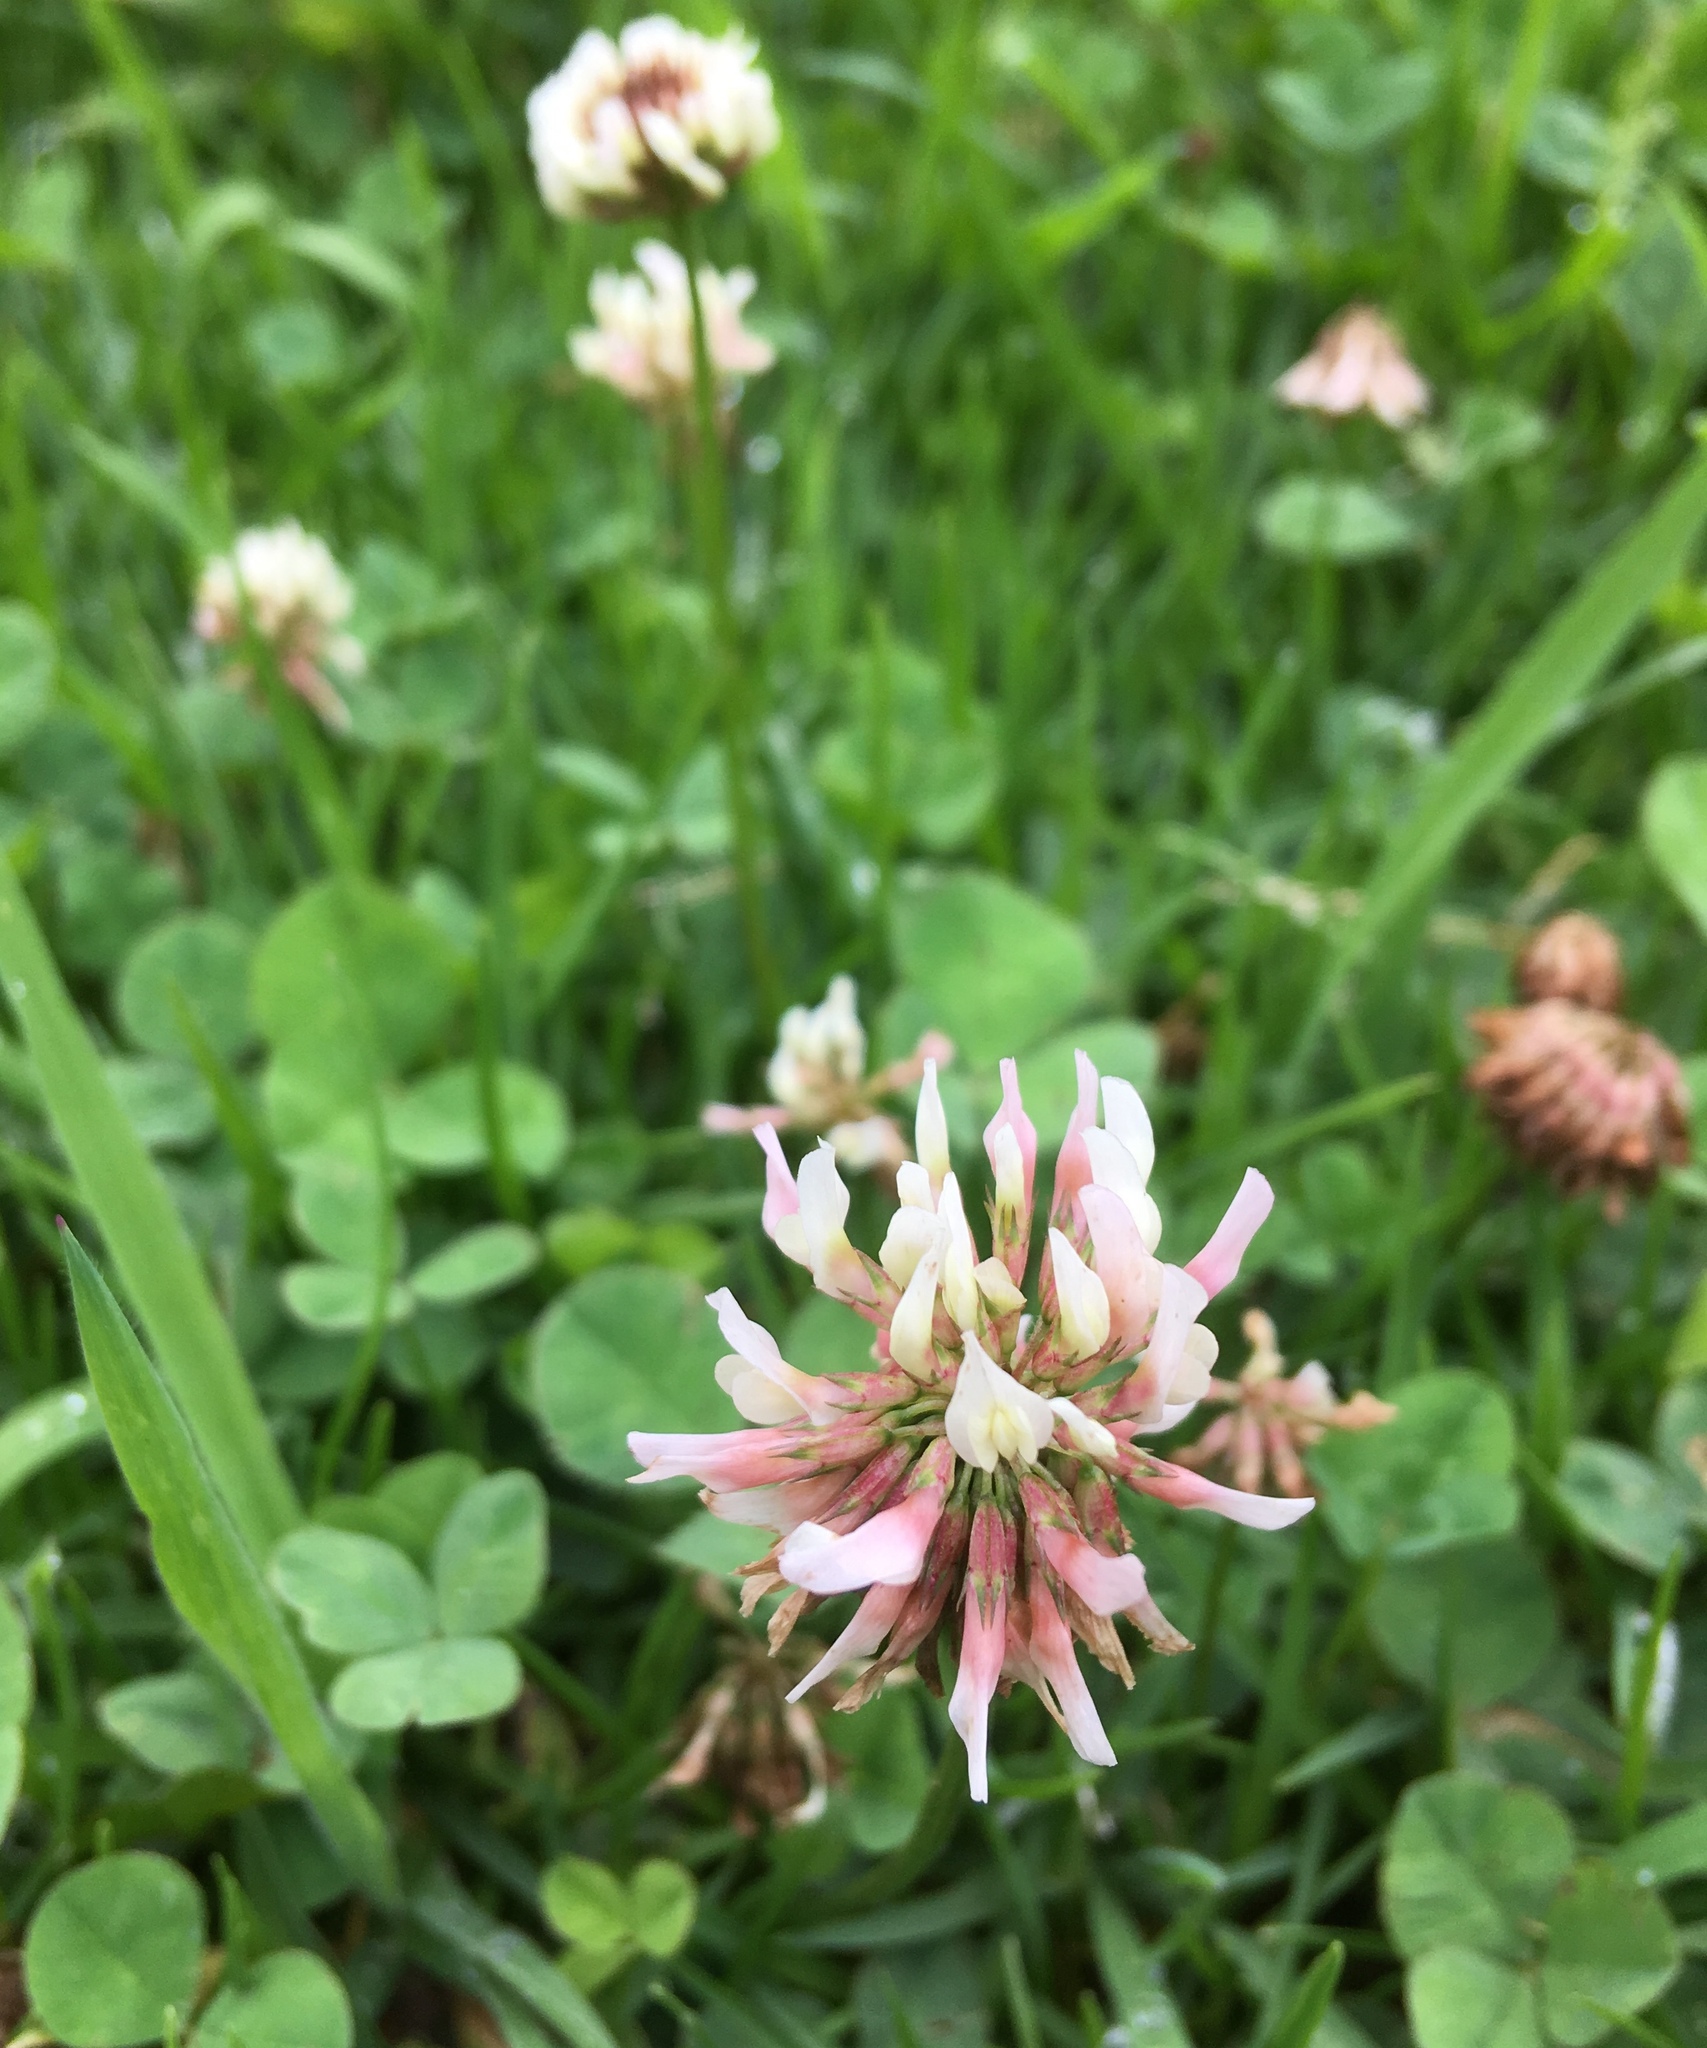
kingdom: Plantae
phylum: Tracheophyta
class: Magnoliopsida
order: Fabales
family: Fabaceae
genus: Trifolium
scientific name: Trifolium repens
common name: White clover
